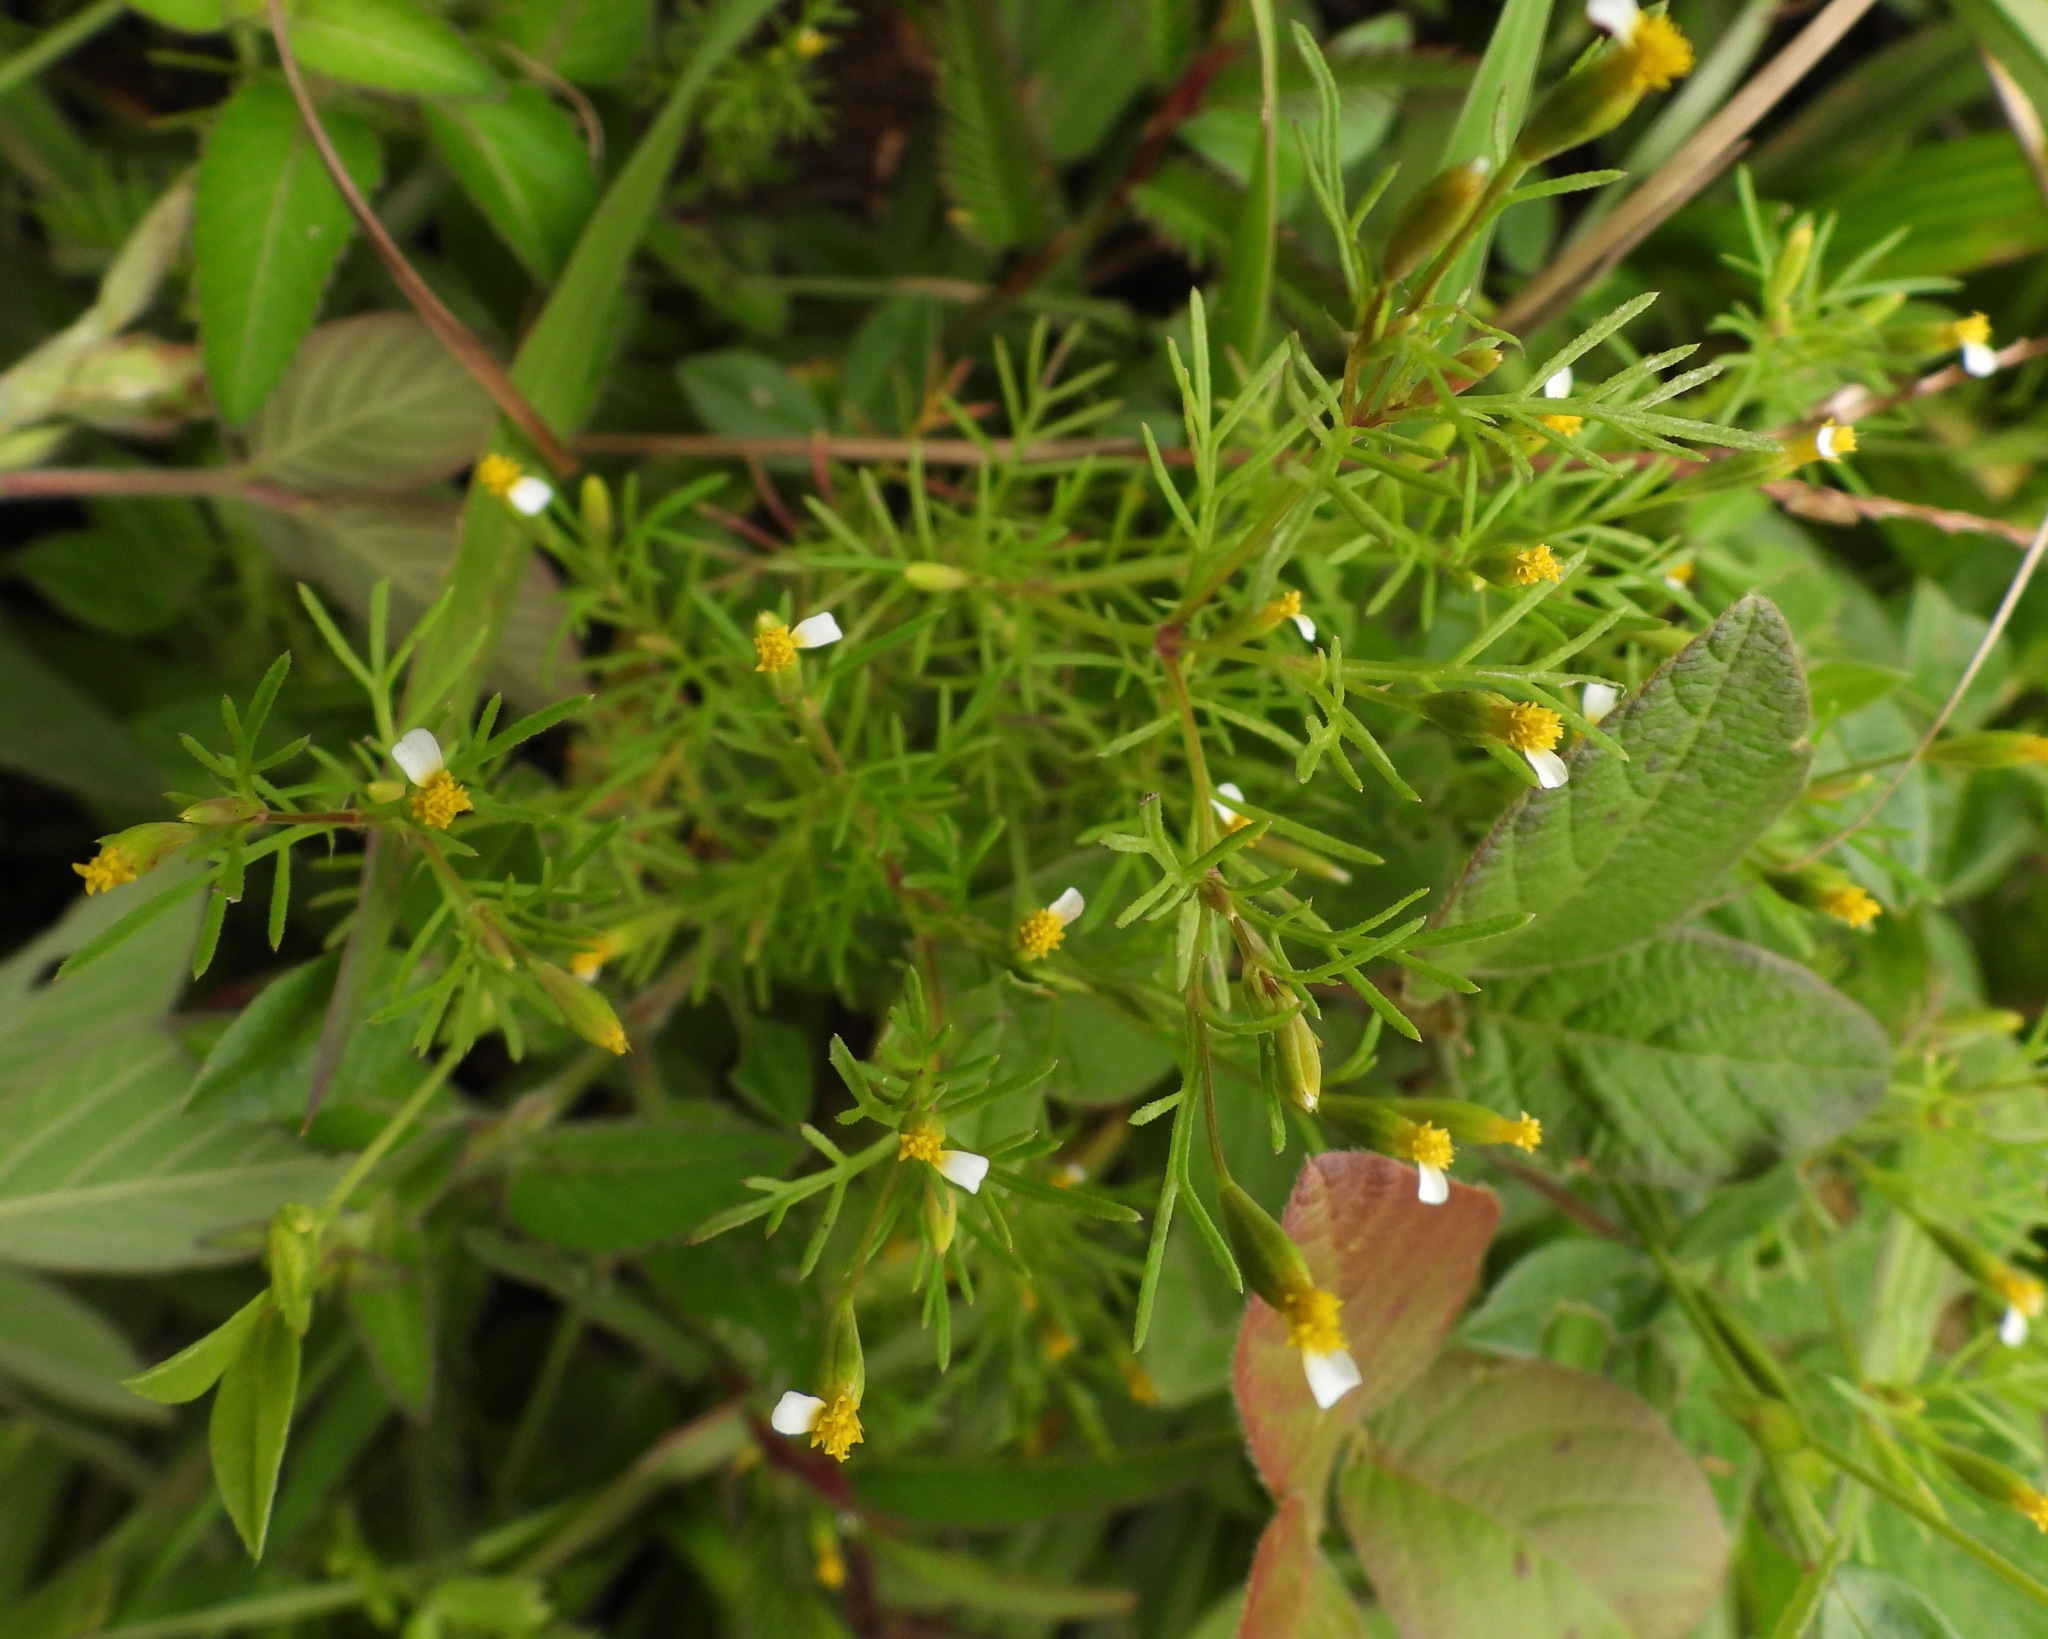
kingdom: Plantae
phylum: Tracheophyta
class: Magnoliopsida
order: Asterales
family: Asteraceae
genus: Tagetes
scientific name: Tagetes filifolia
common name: Lesser marigold
